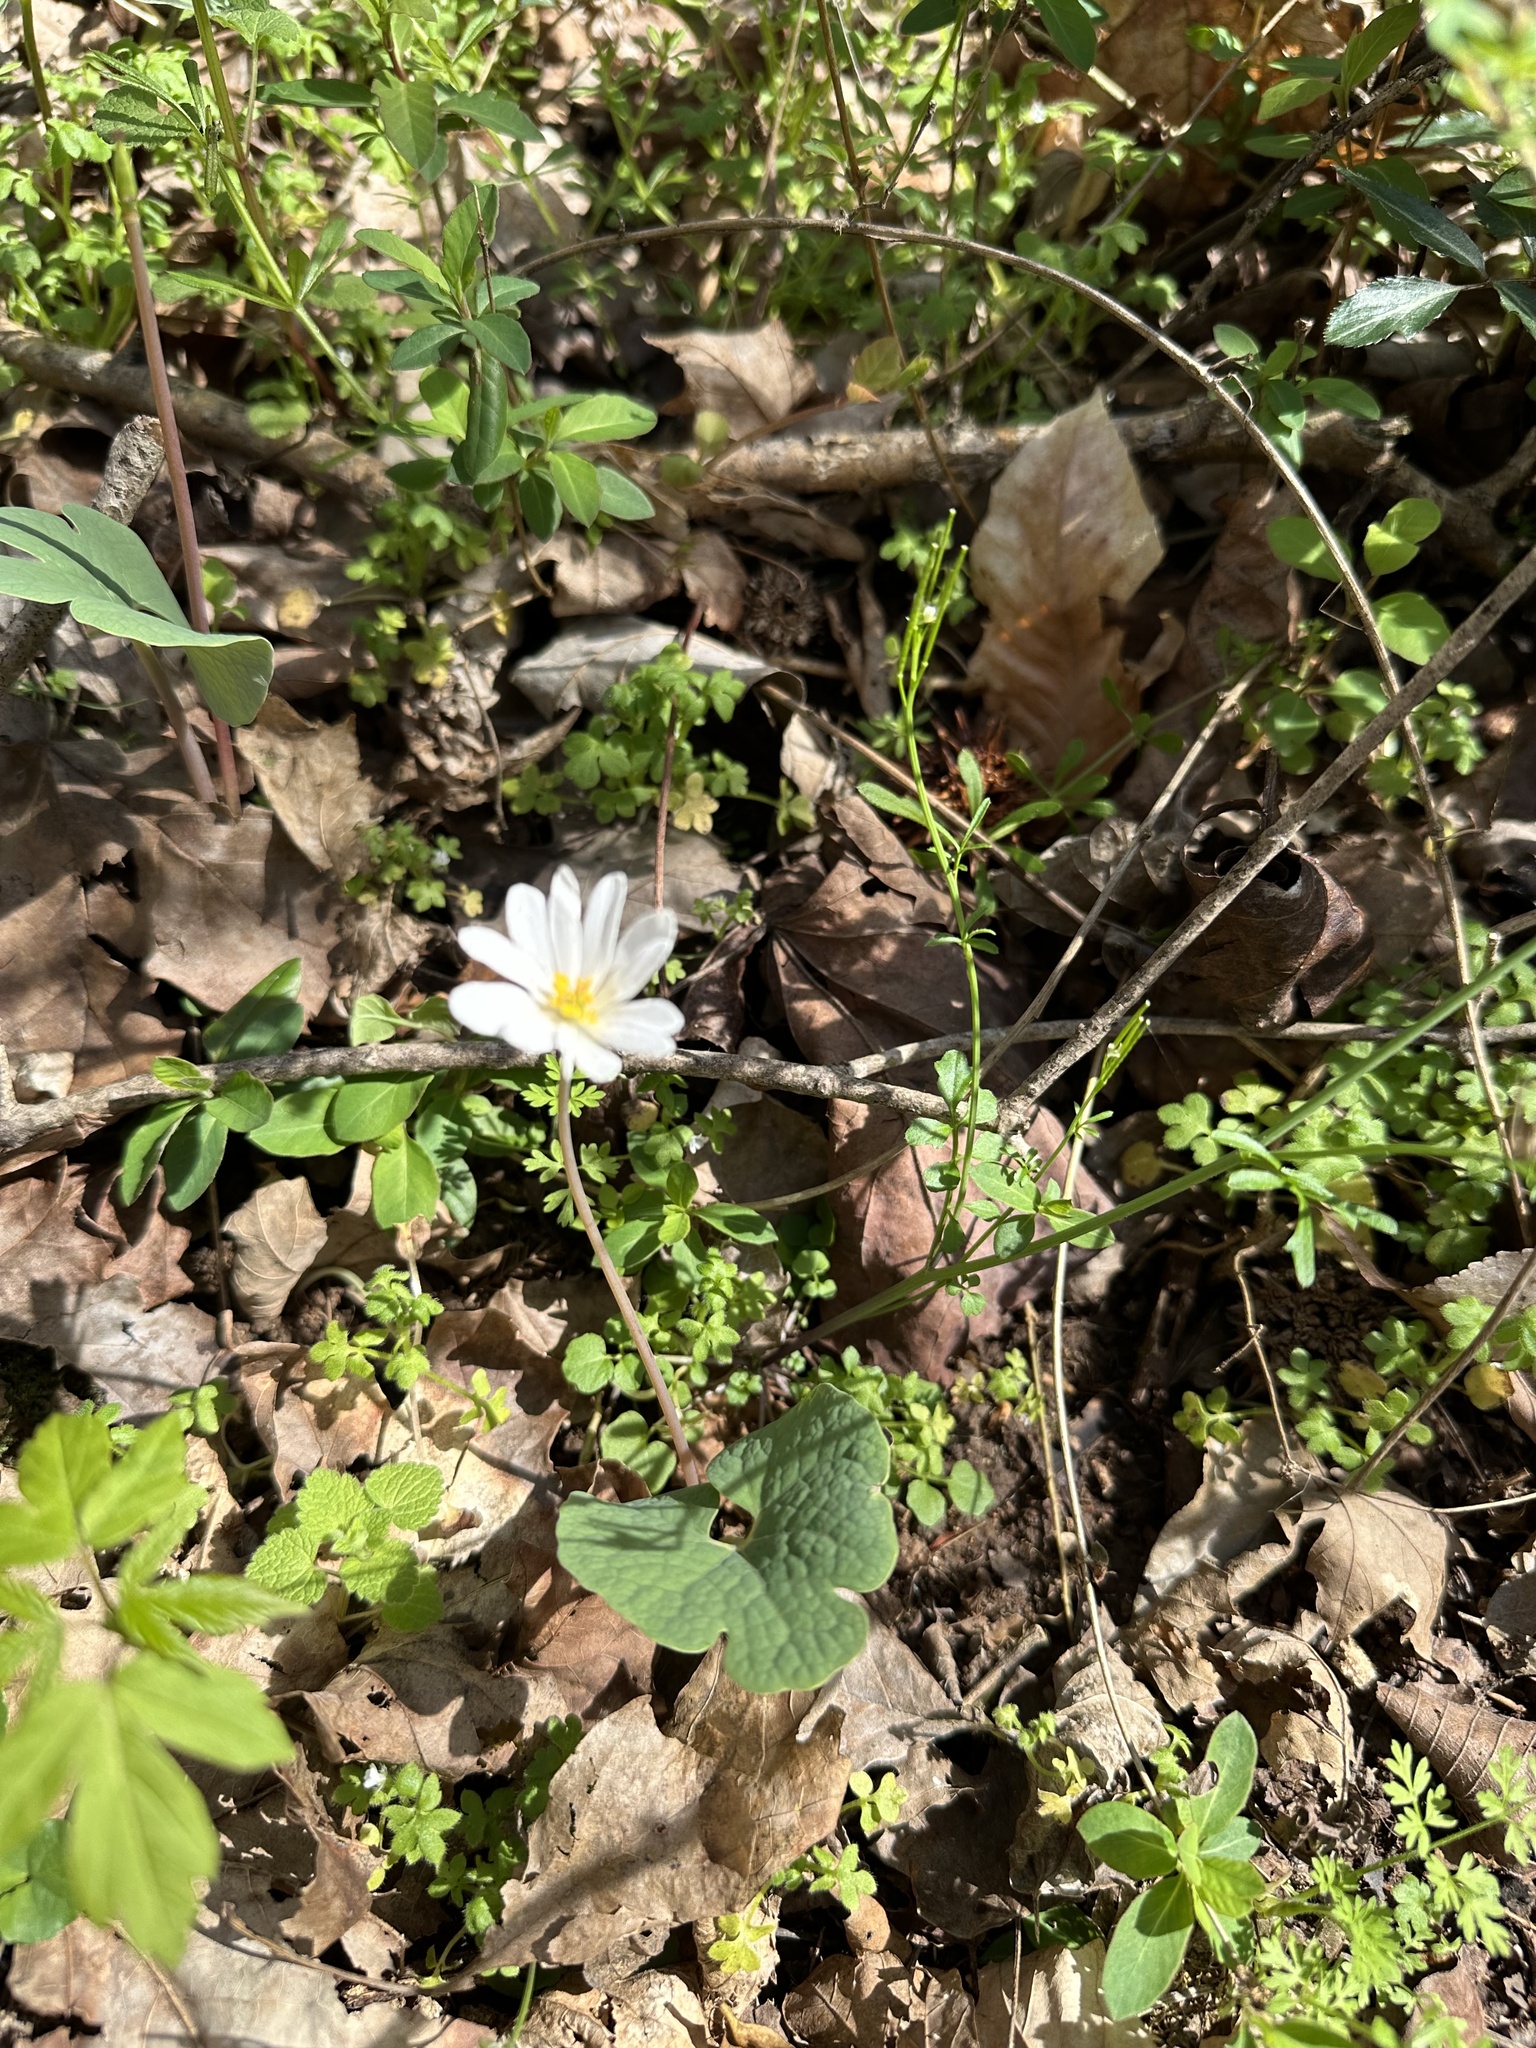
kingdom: Plantae
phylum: Tracheophyta
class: Magnoliopsida
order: Ranunculales
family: Papaveraceae
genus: Sanguinaria
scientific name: Sanguinaria canadensis
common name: Bloodroot
